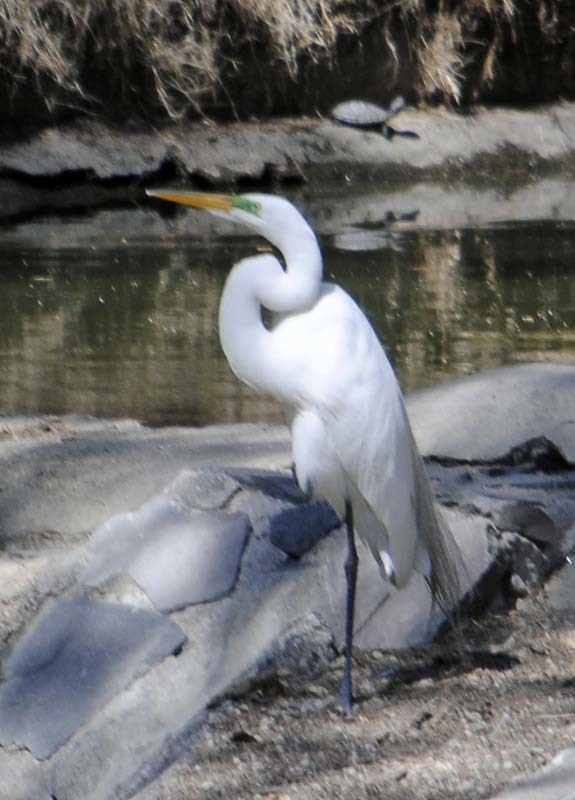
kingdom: Animalia
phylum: Chordata
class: Aves
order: Pelecaniformes
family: Ardeidae
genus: Ardea
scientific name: Ardea alba
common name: Great egret
